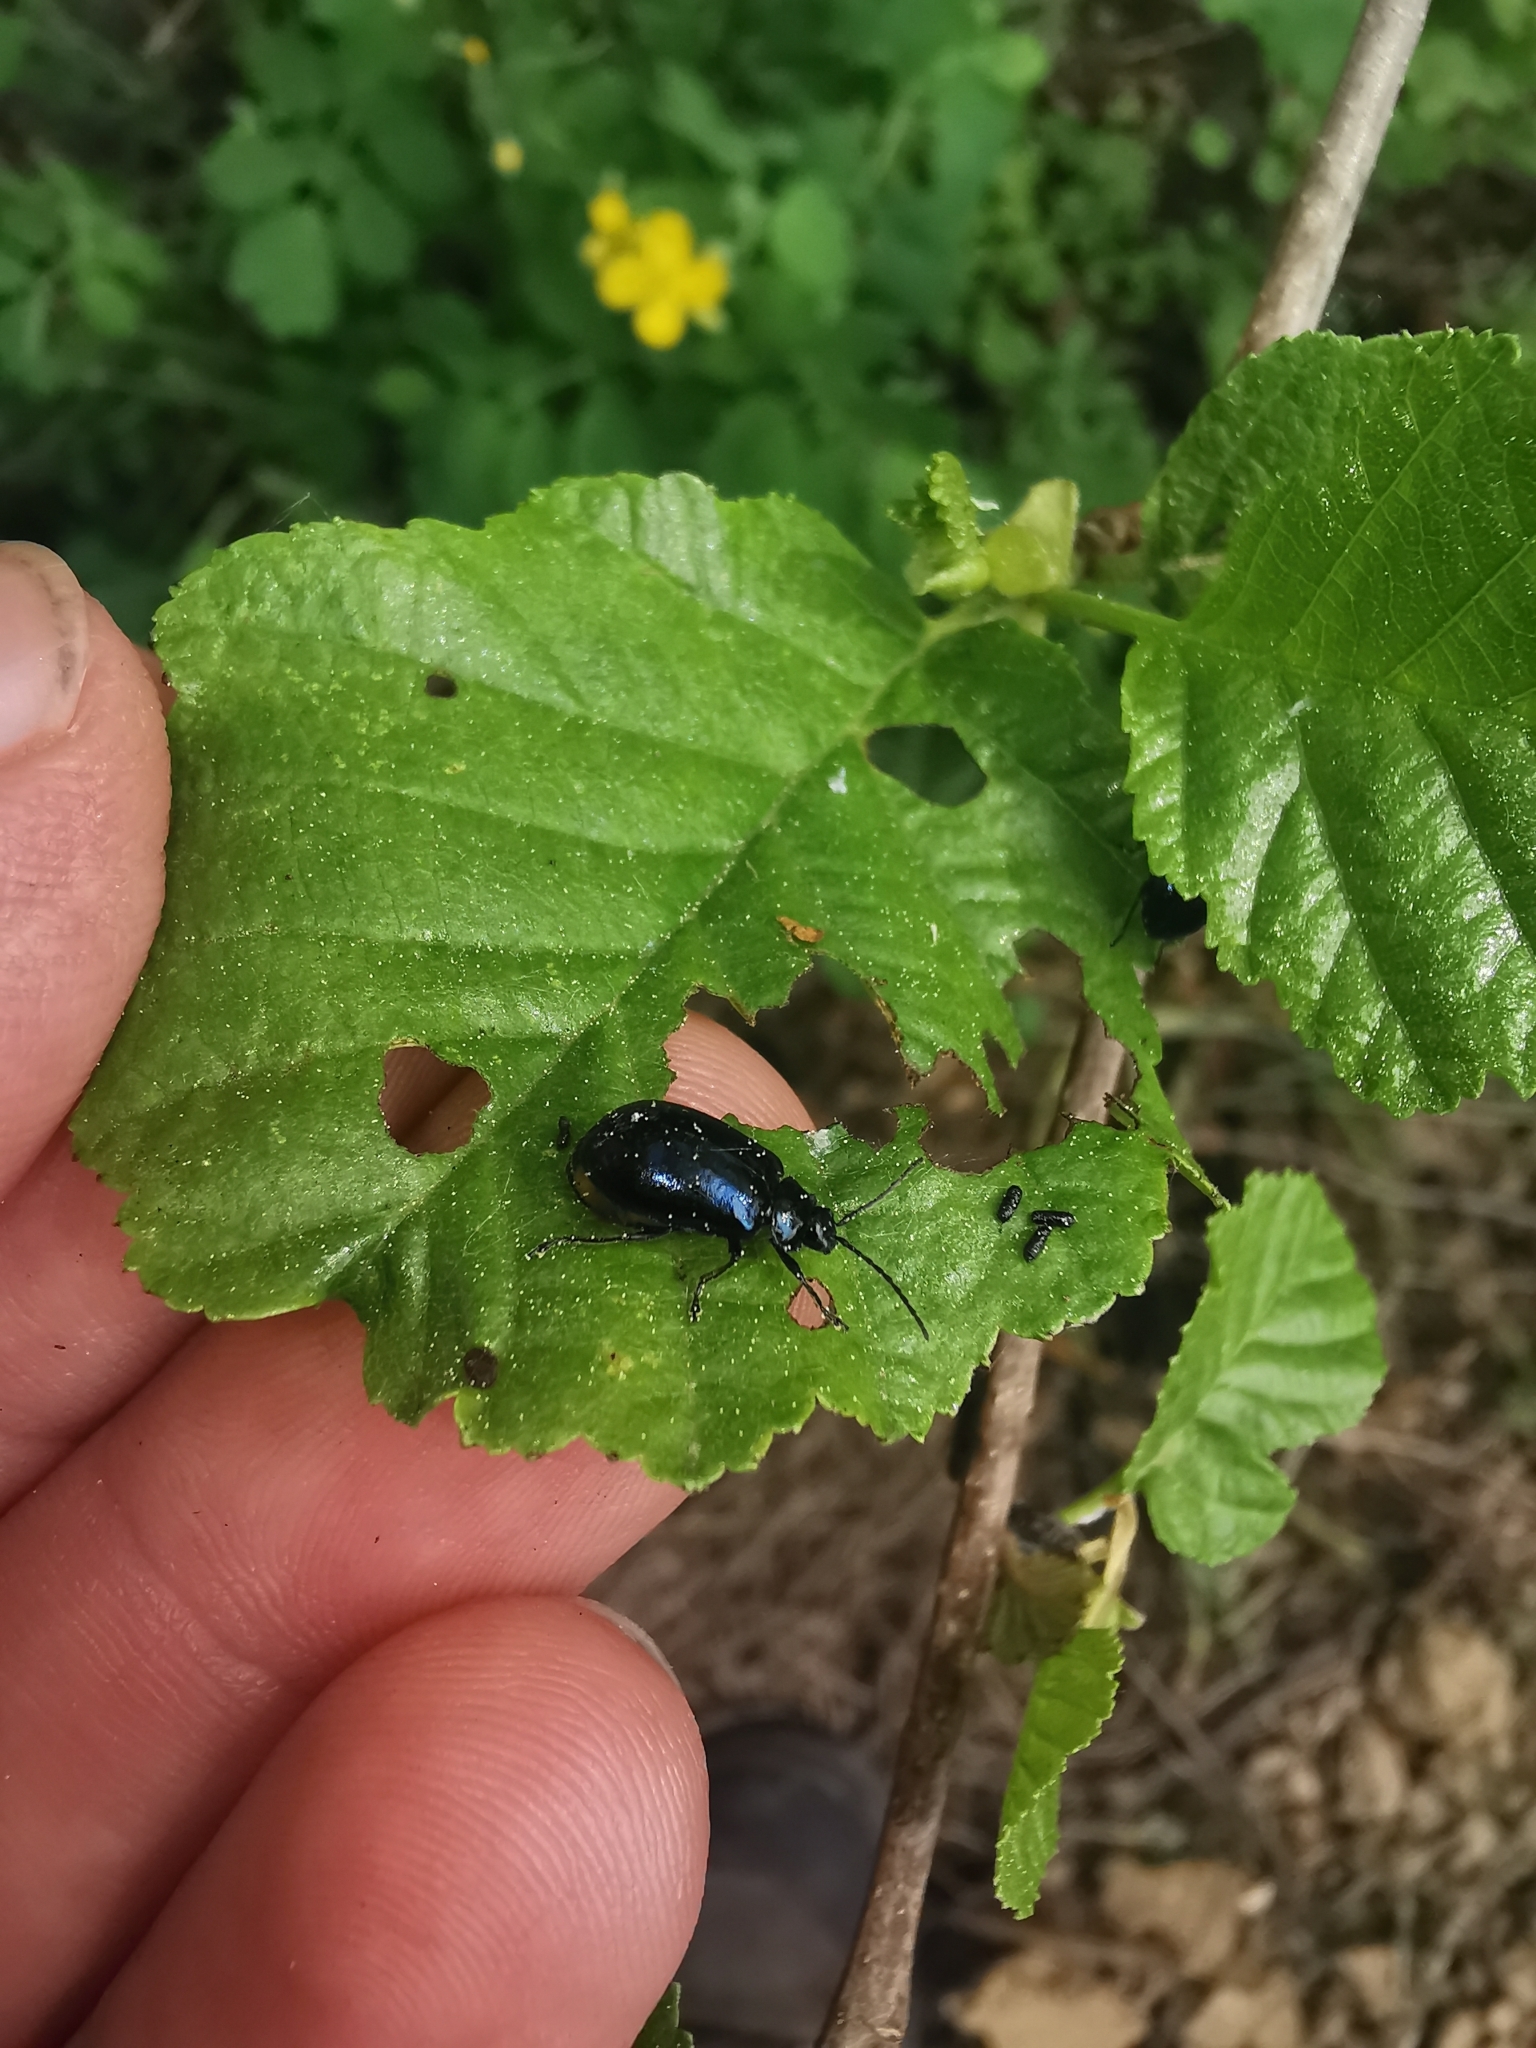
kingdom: Animalia
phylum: Arthropoda
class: Insecta
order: Coleoptera
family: Chrysomelidae
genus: Agelastica
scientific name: Agelastica alni
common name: Alder leaf beetle
